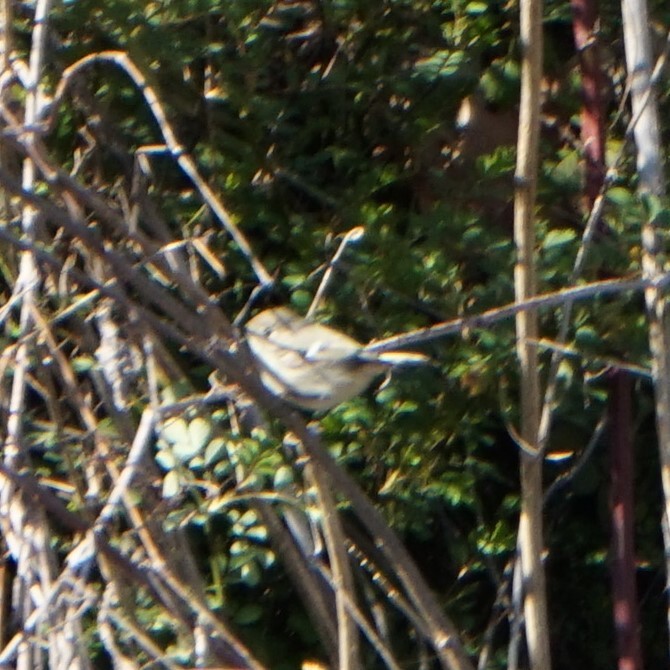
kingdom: Animalia
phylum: Chordata
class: Aves
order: Passeriformes
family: Regulidae
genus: Regulus
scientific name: Regulus calendula
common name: Ruby-crowned kinglet
